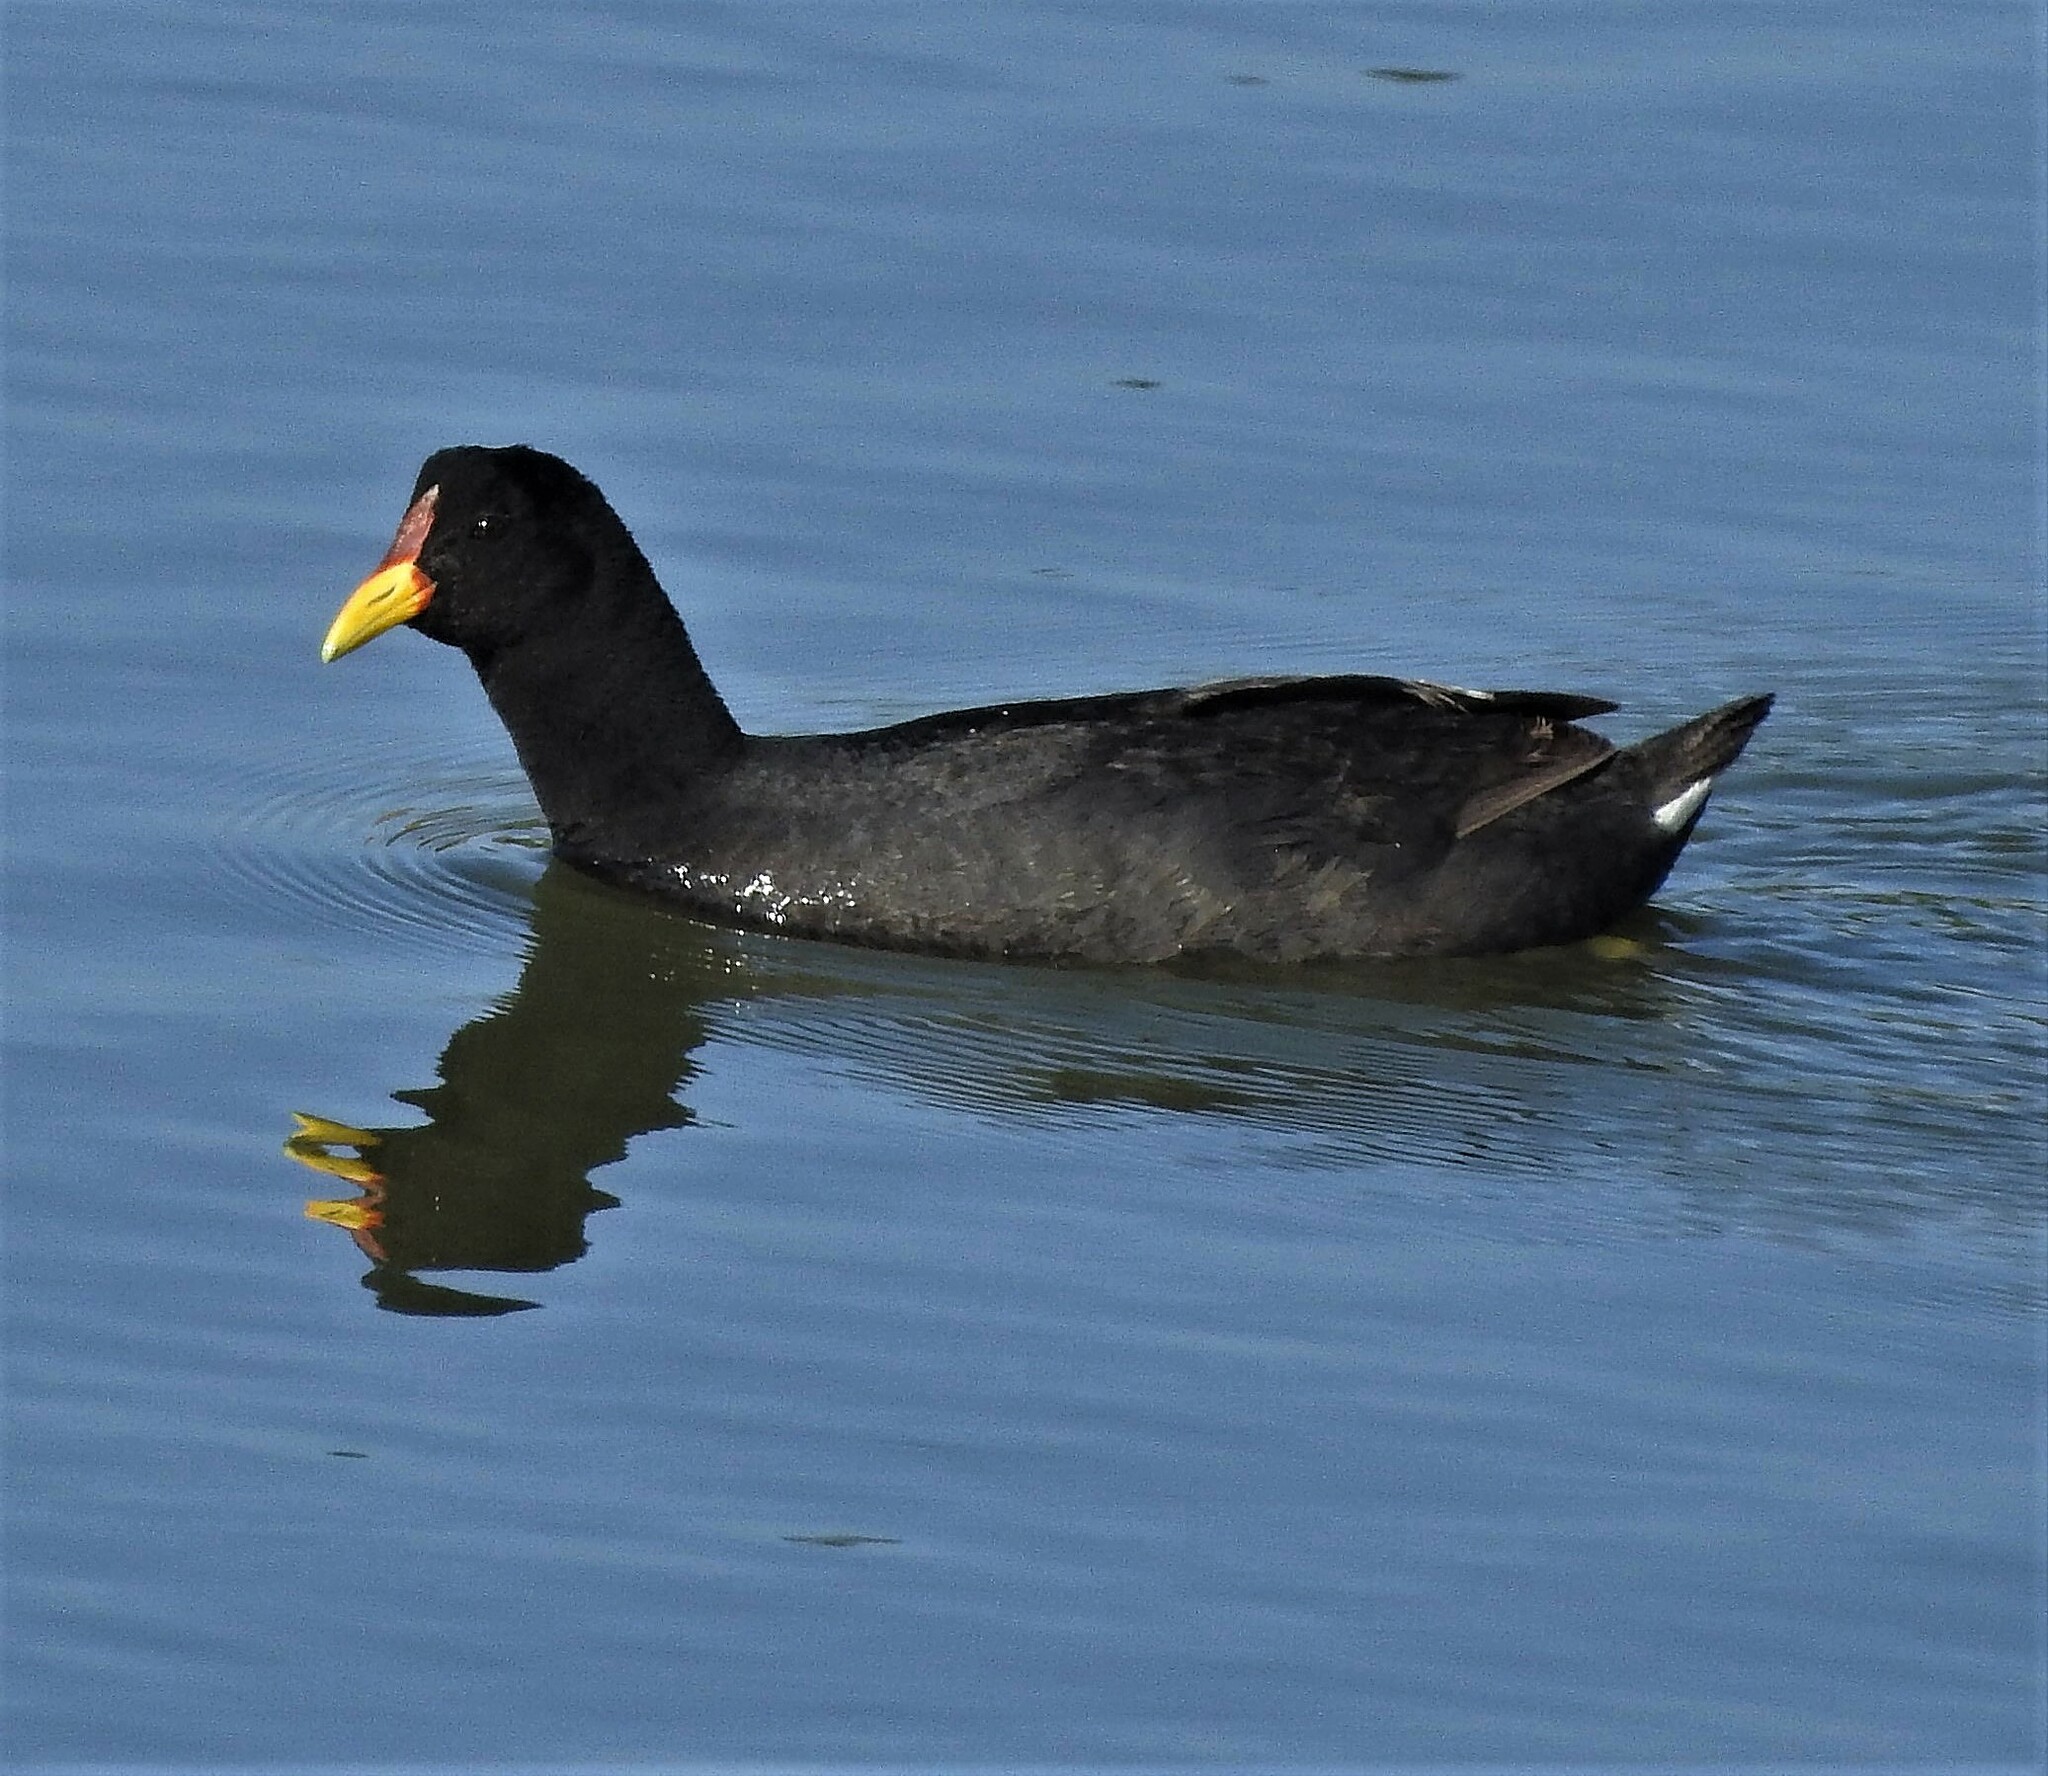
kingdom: Animalia
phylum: Chordata
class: Aves
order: Gruiformes
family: Rallidae
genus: Fulica
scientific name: Fulica rufifrons
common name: Red-fronted coot
